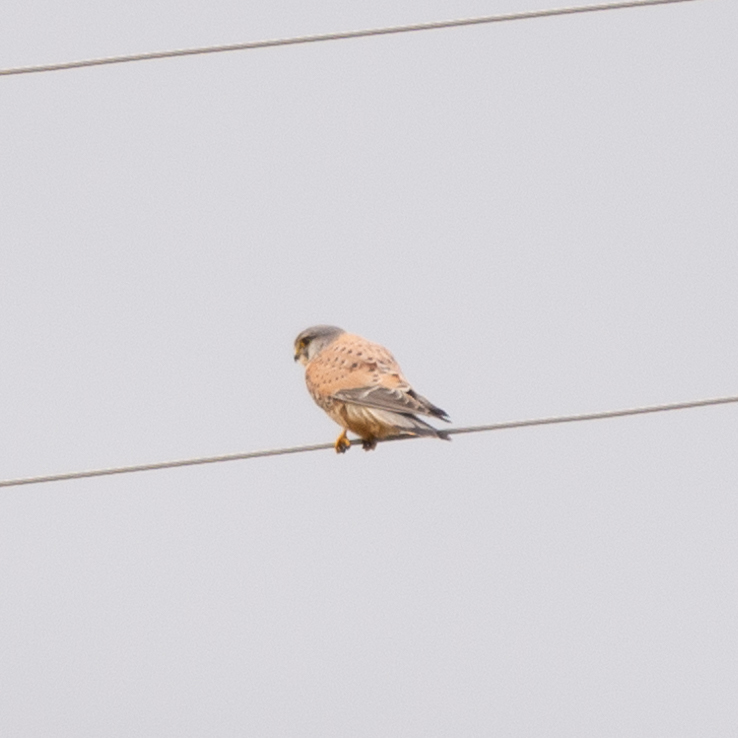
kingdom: Animalia
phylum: Chordata
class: Aves
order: Falconiformes
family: Falconidae
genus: Falco
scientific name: Falco tinnunculus
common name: Common kestrel
